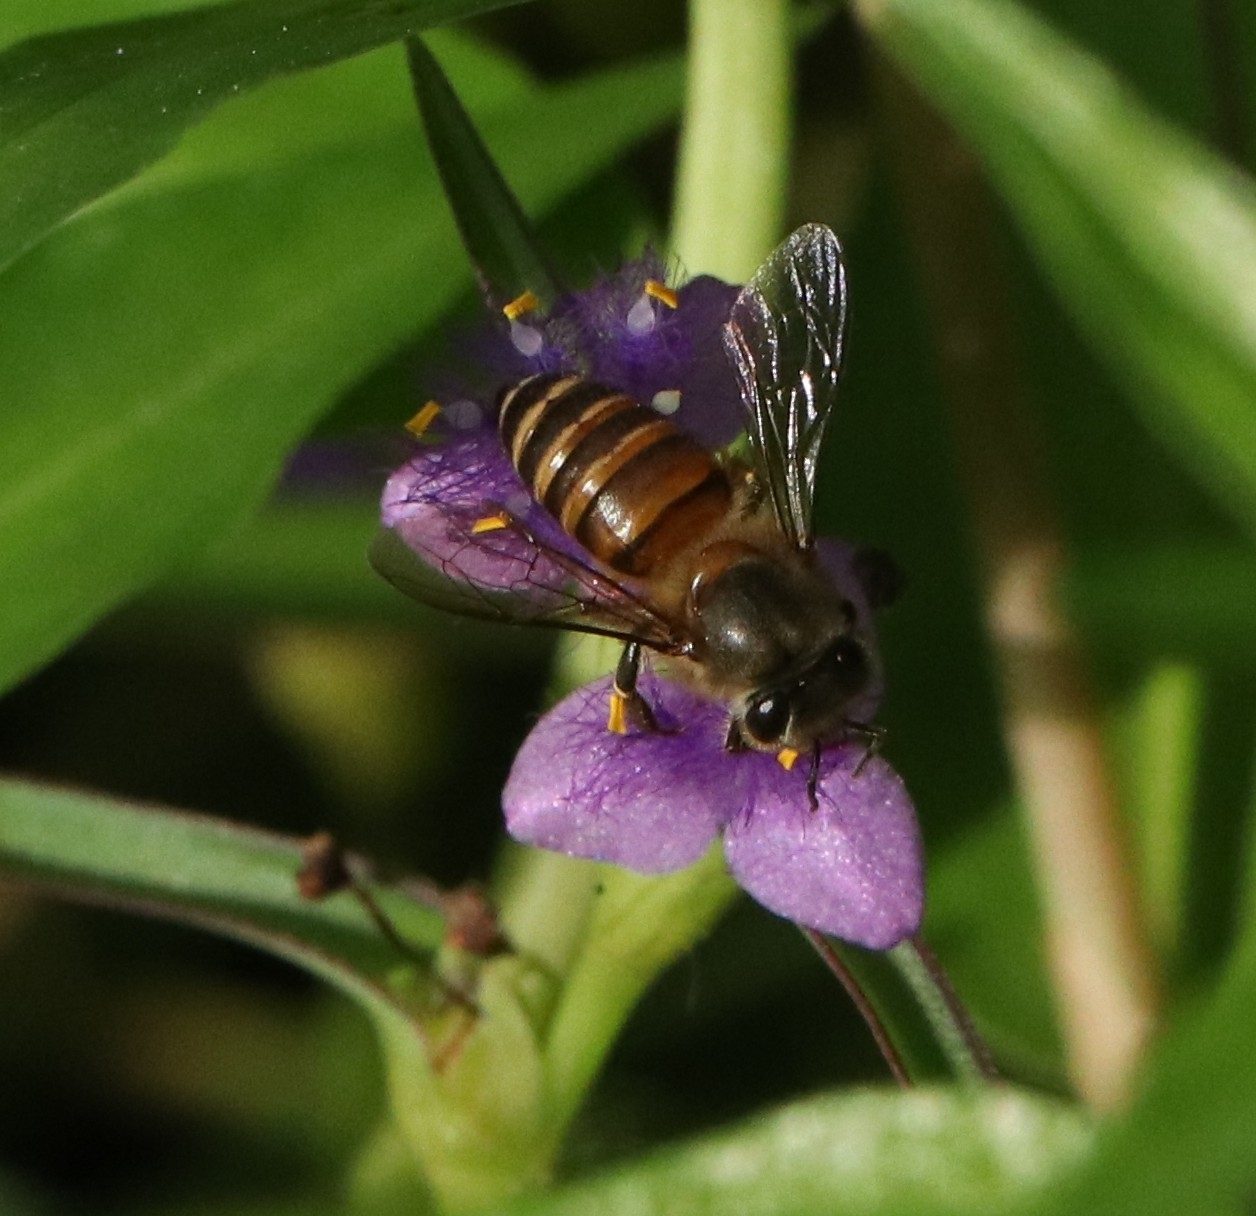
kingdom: Animalia
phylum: Arthropoda
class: Insecta
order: Hymenoptera
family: Apidae
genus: Apis
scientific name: Apis cerana
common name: Honey bee
